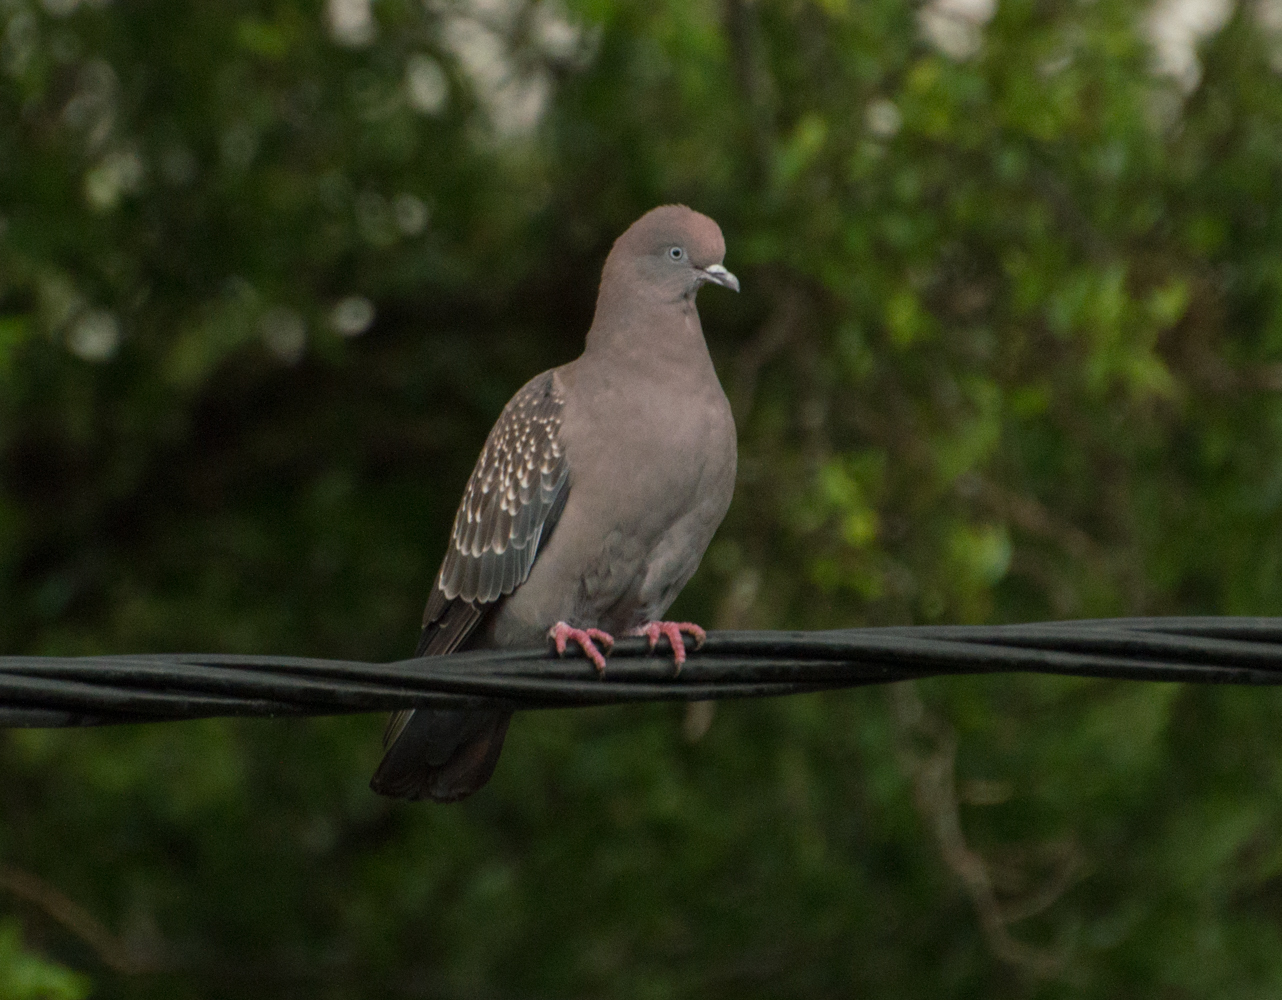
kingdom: Animalia
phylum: Chordata
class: Aves
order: Columbiformes
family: Columbidae
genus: Patagioenas
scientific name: Patagioenas maculosa
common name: Spot-winged pigeon
